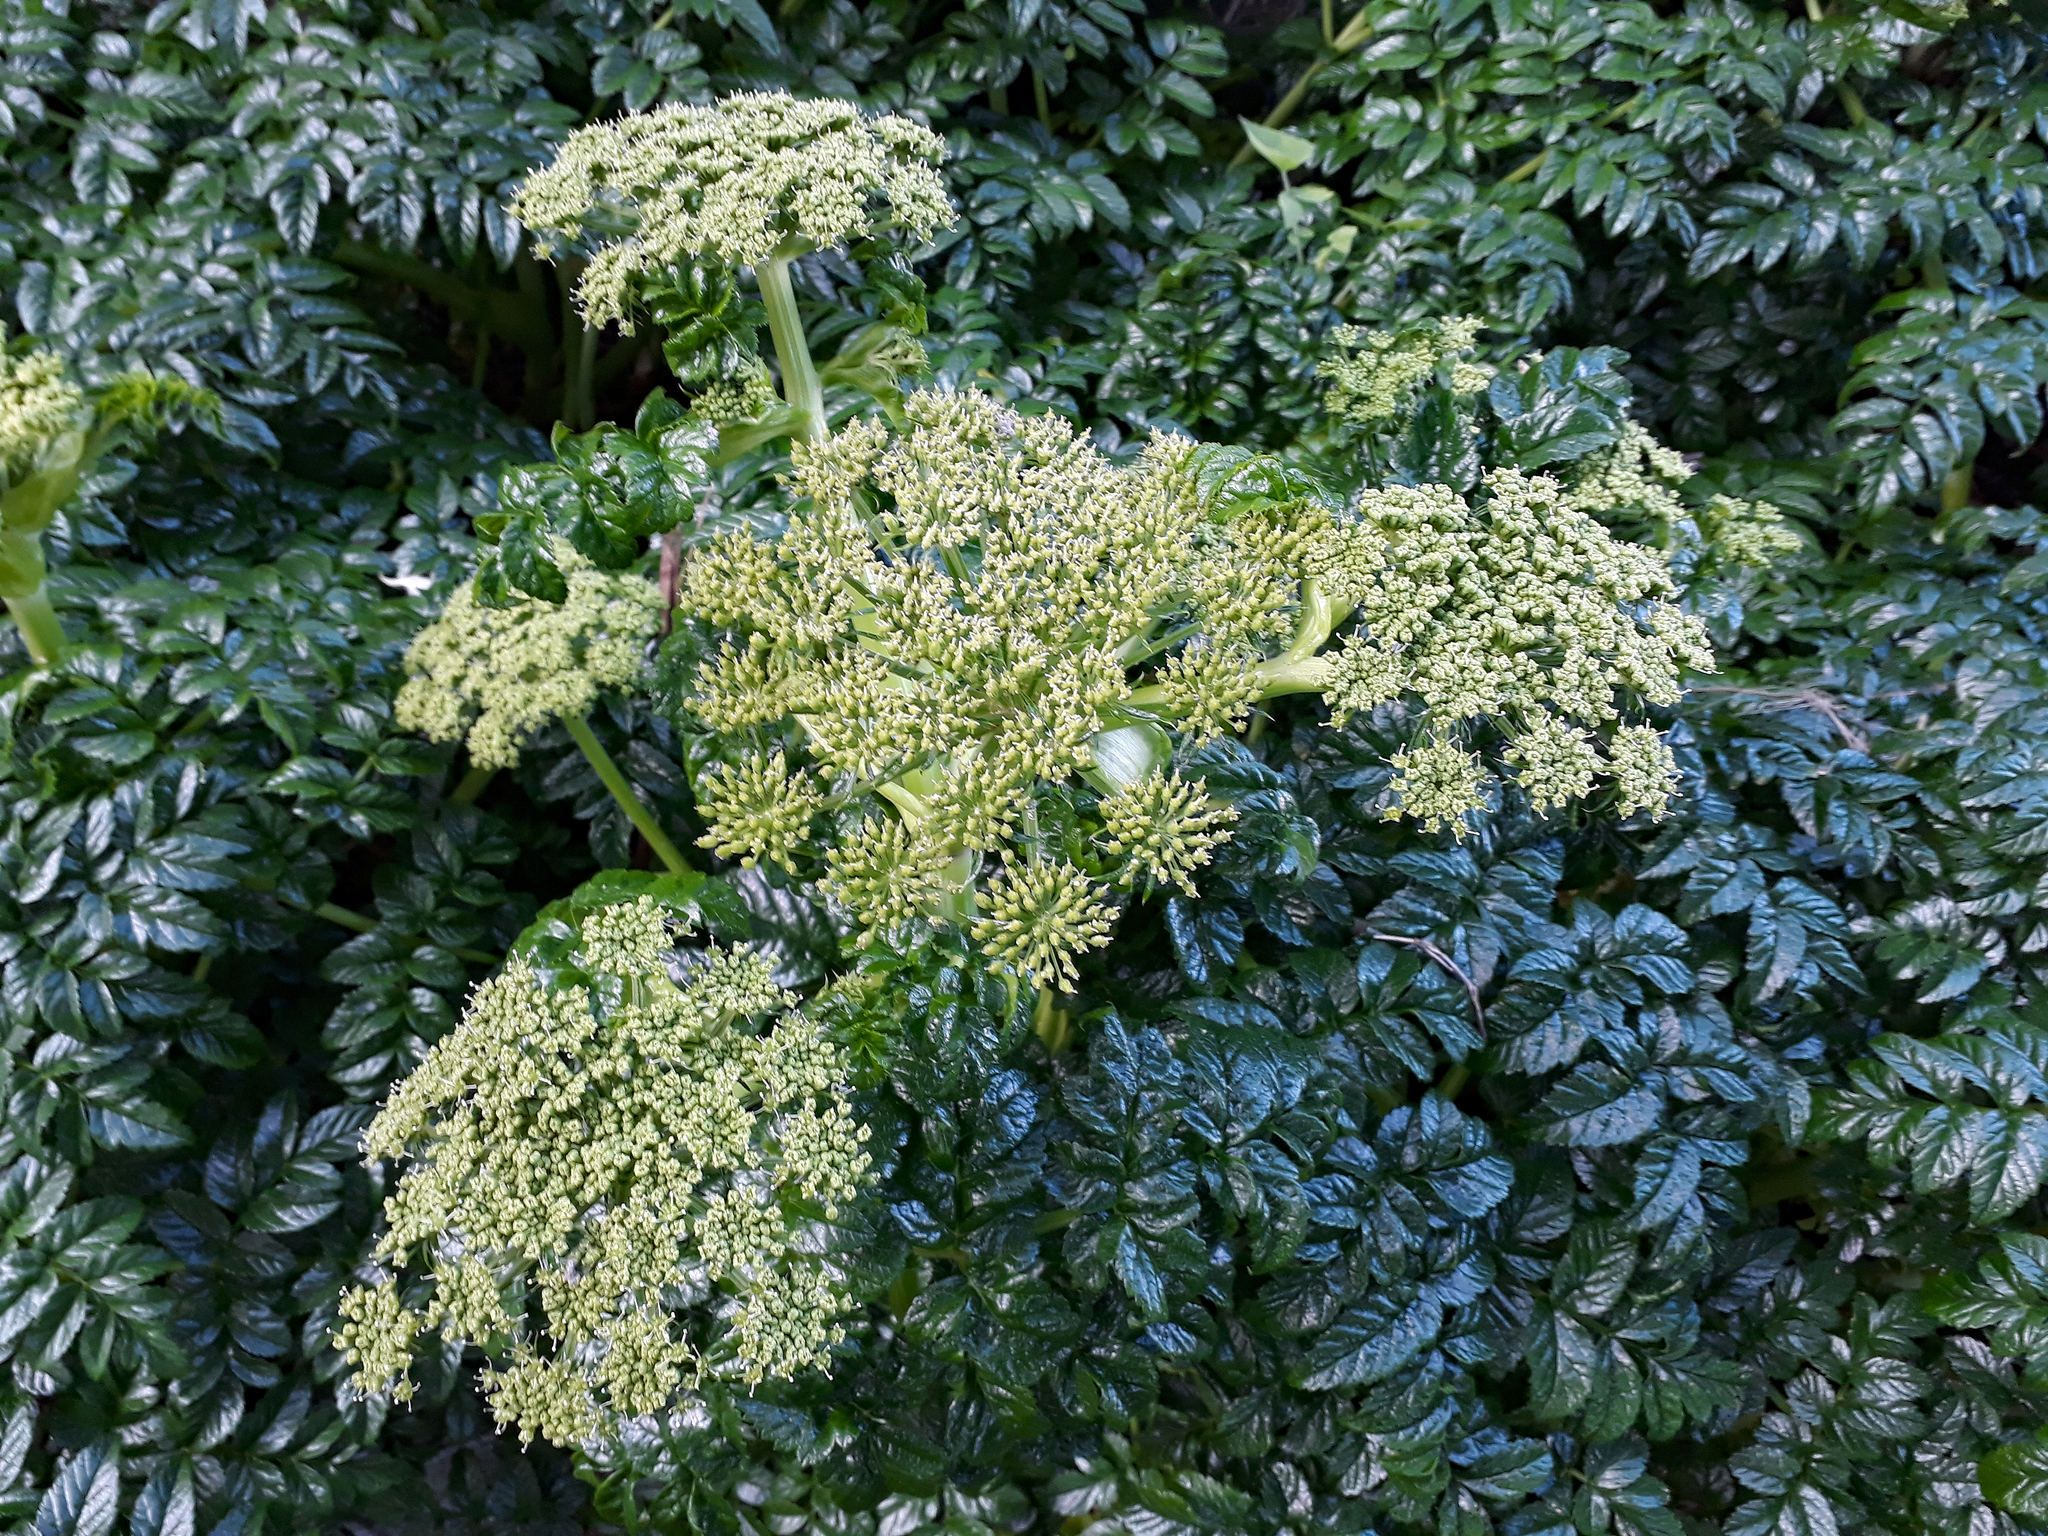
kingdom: Plantae
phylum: Tracheophyta
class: Magnoliopsida
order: Apiales
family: Apiaceae
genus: Angelica
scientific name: Angelica pachycarpa
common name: Portuguese angelica
